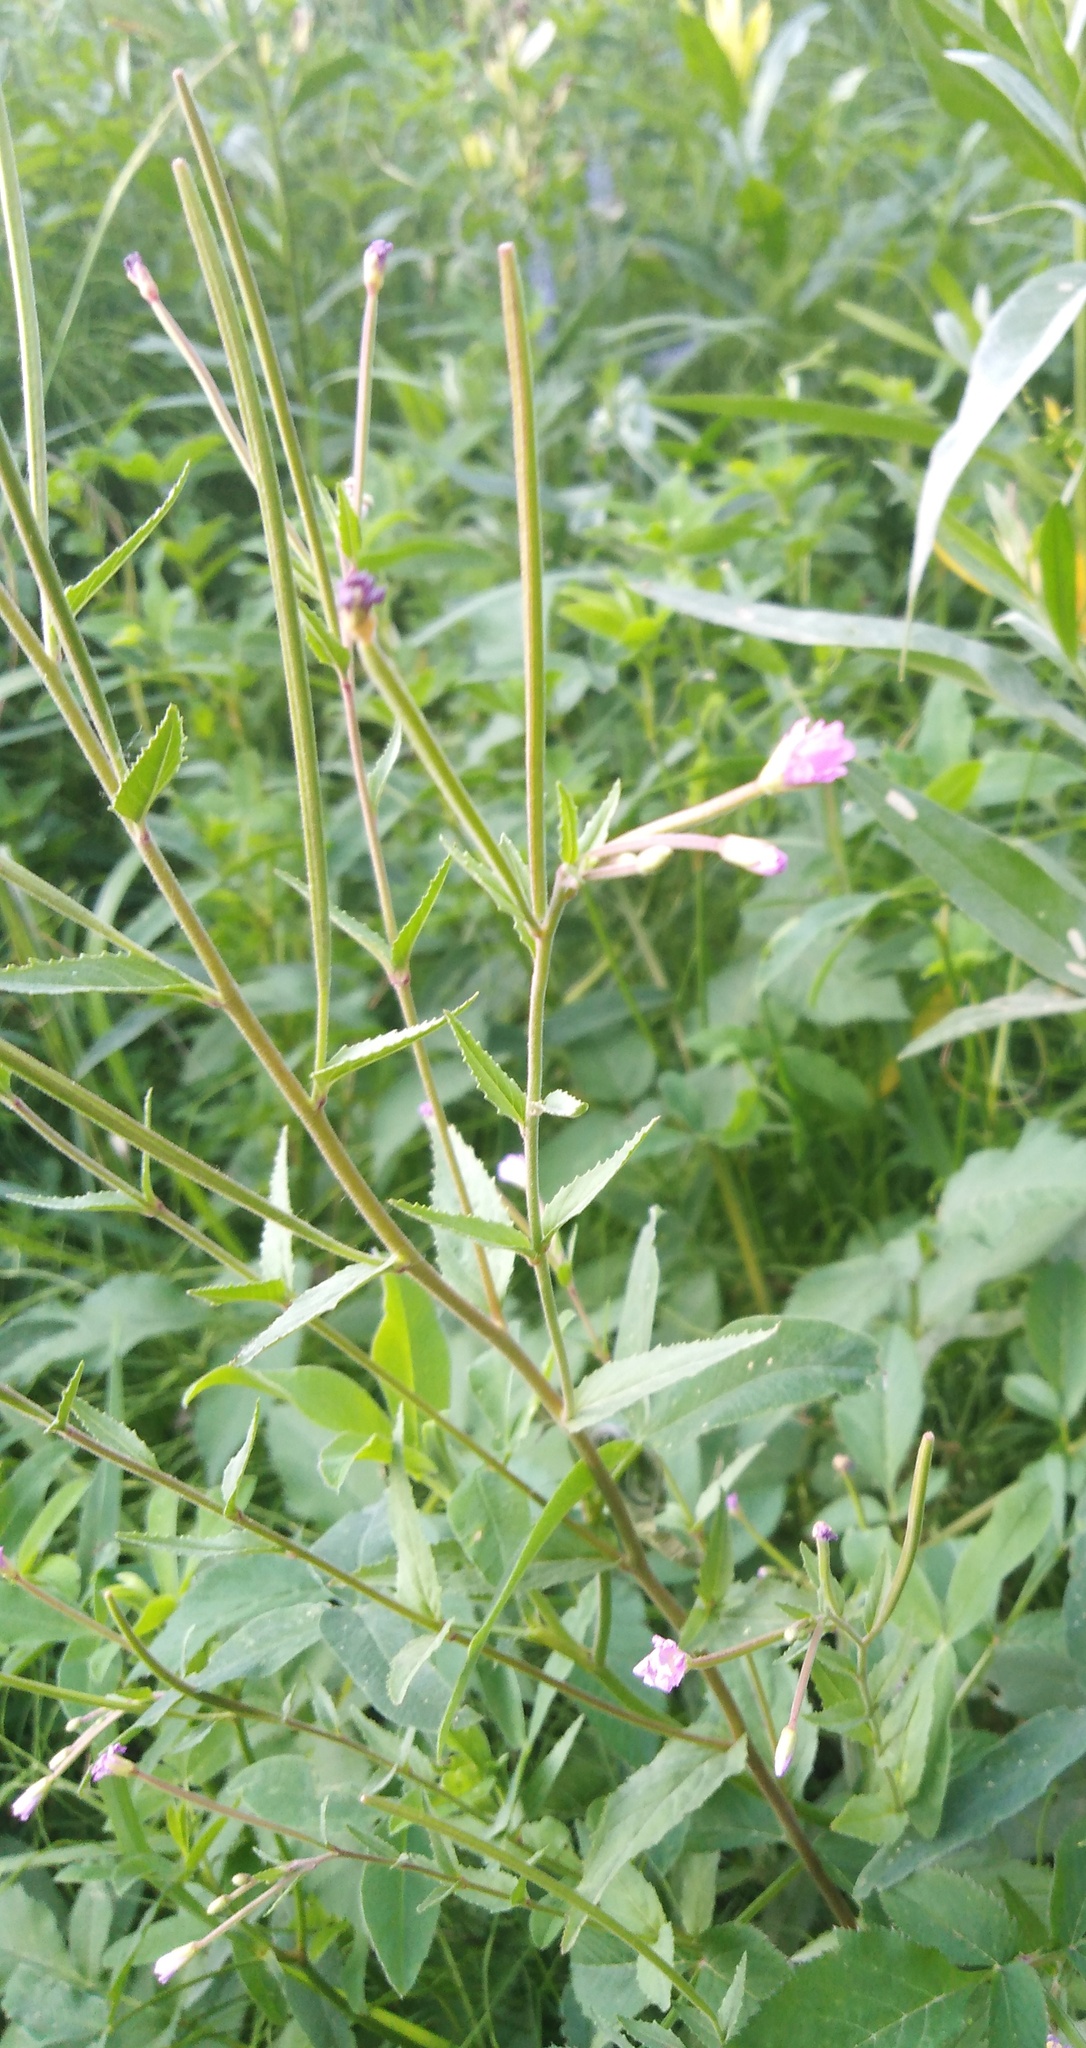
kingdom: Plantae
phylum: Tracheophyta
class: Magnoliopsida
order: Myrtales
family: Onagraceae
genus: Epilobium
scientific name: Epilobium montanum
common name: Broad-leaved willowherb
